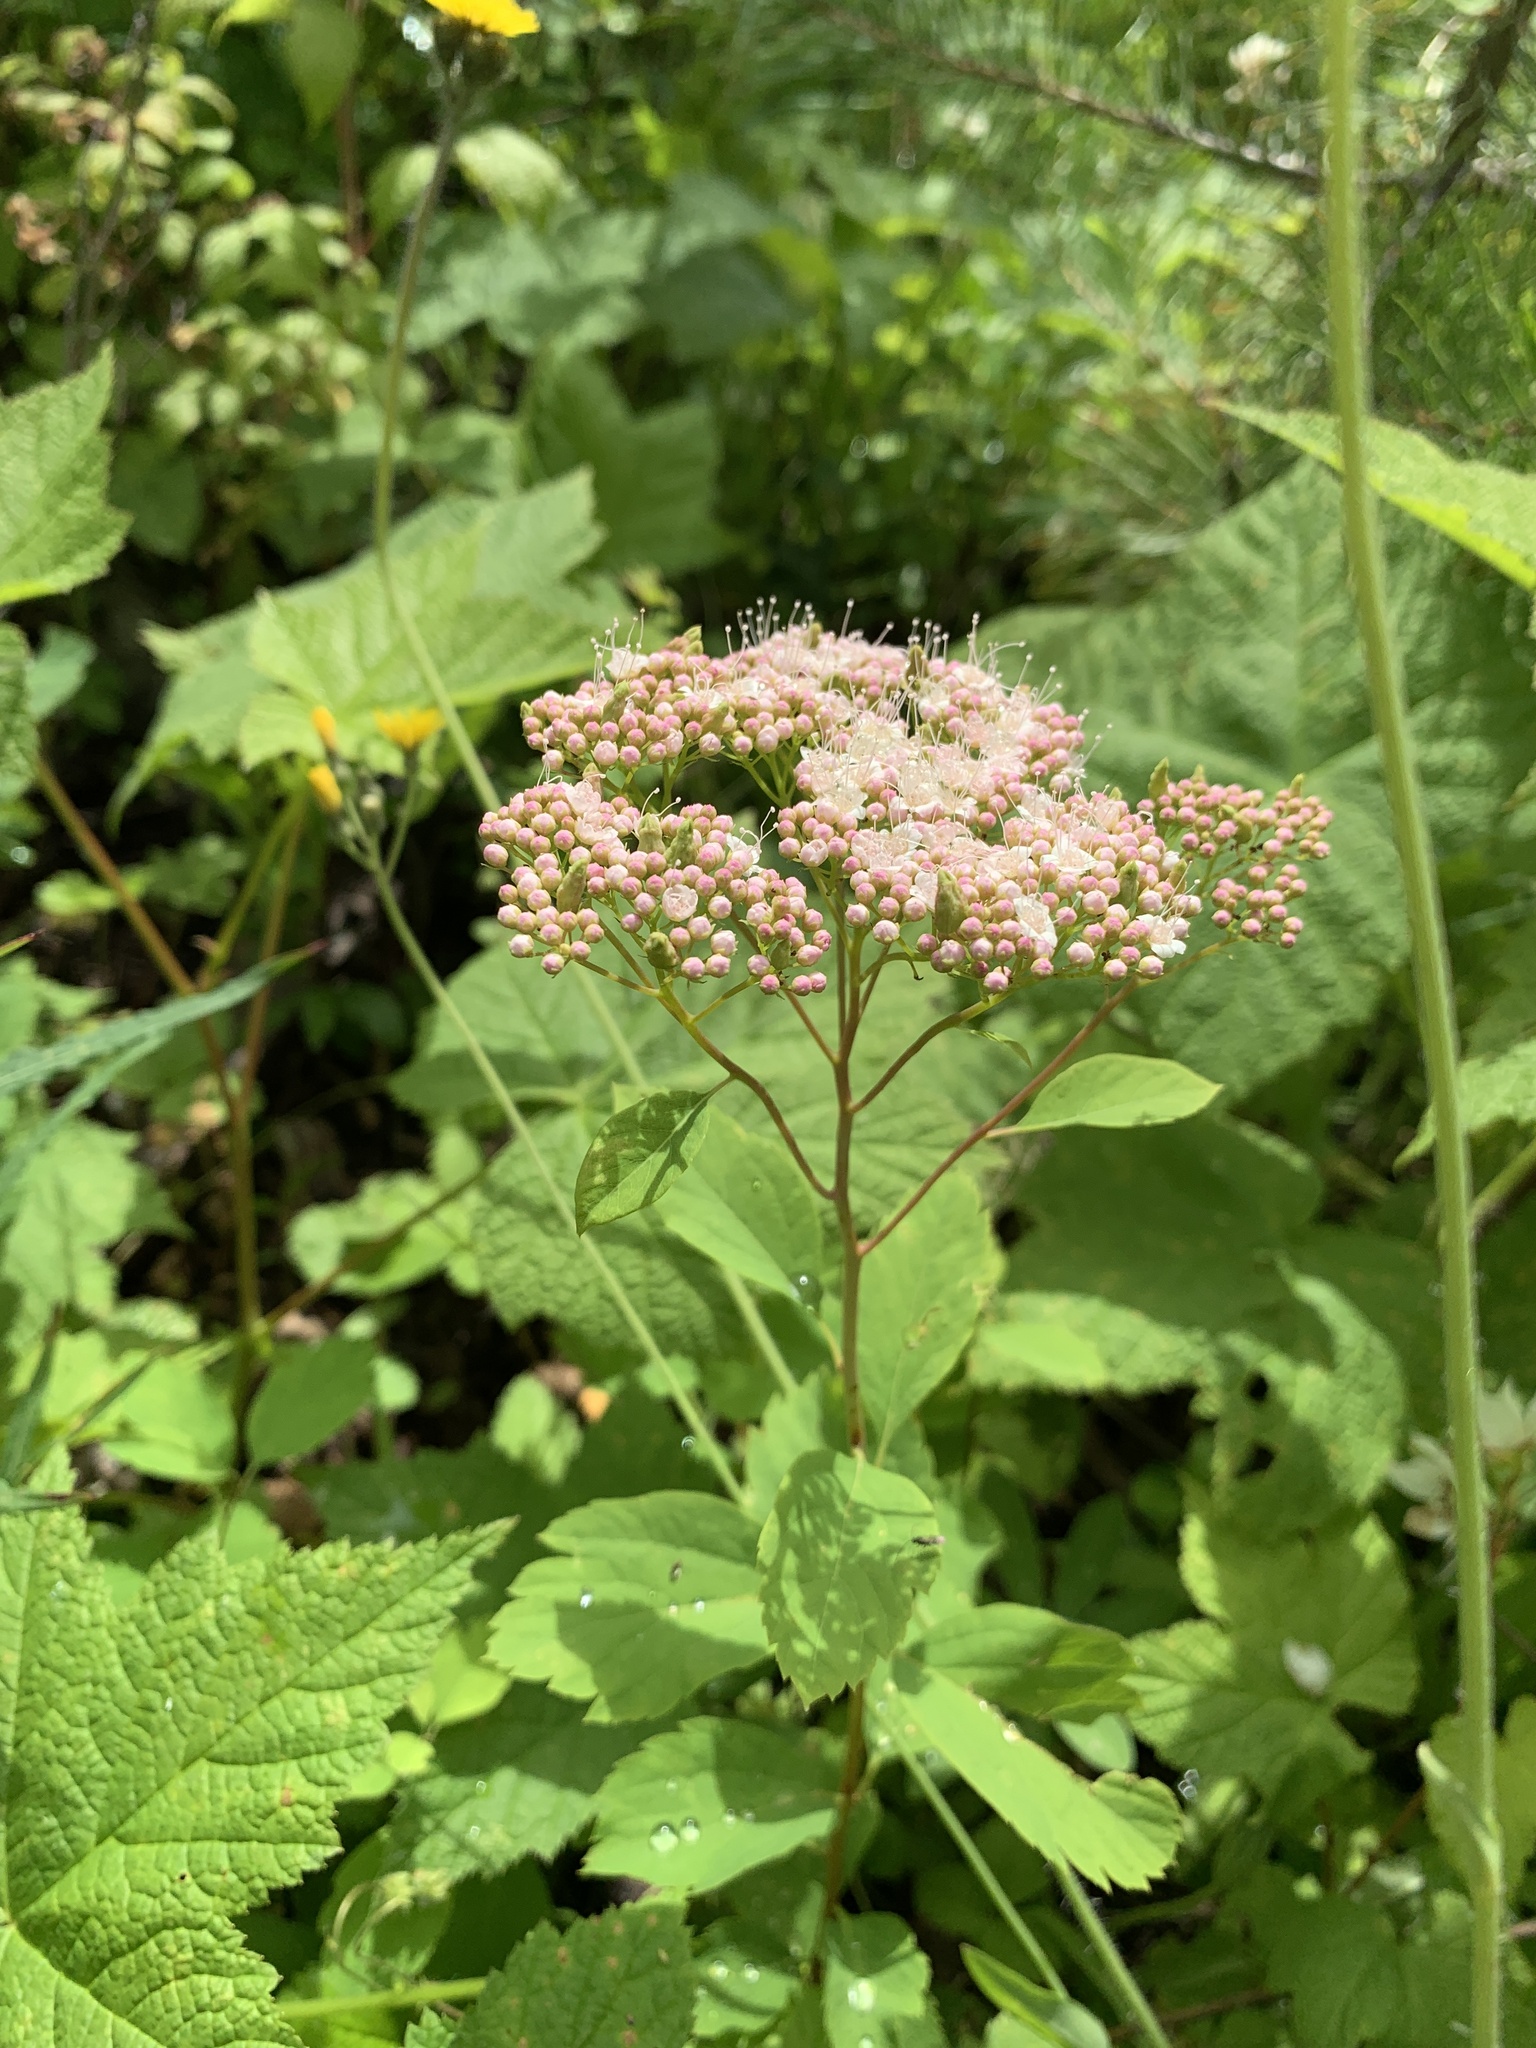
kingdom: Plantae
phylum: Tracheophyta
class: Magnoliopsida
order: Rosales
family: Rosaceae
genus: Spiraea
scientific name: Spiraea lucida
